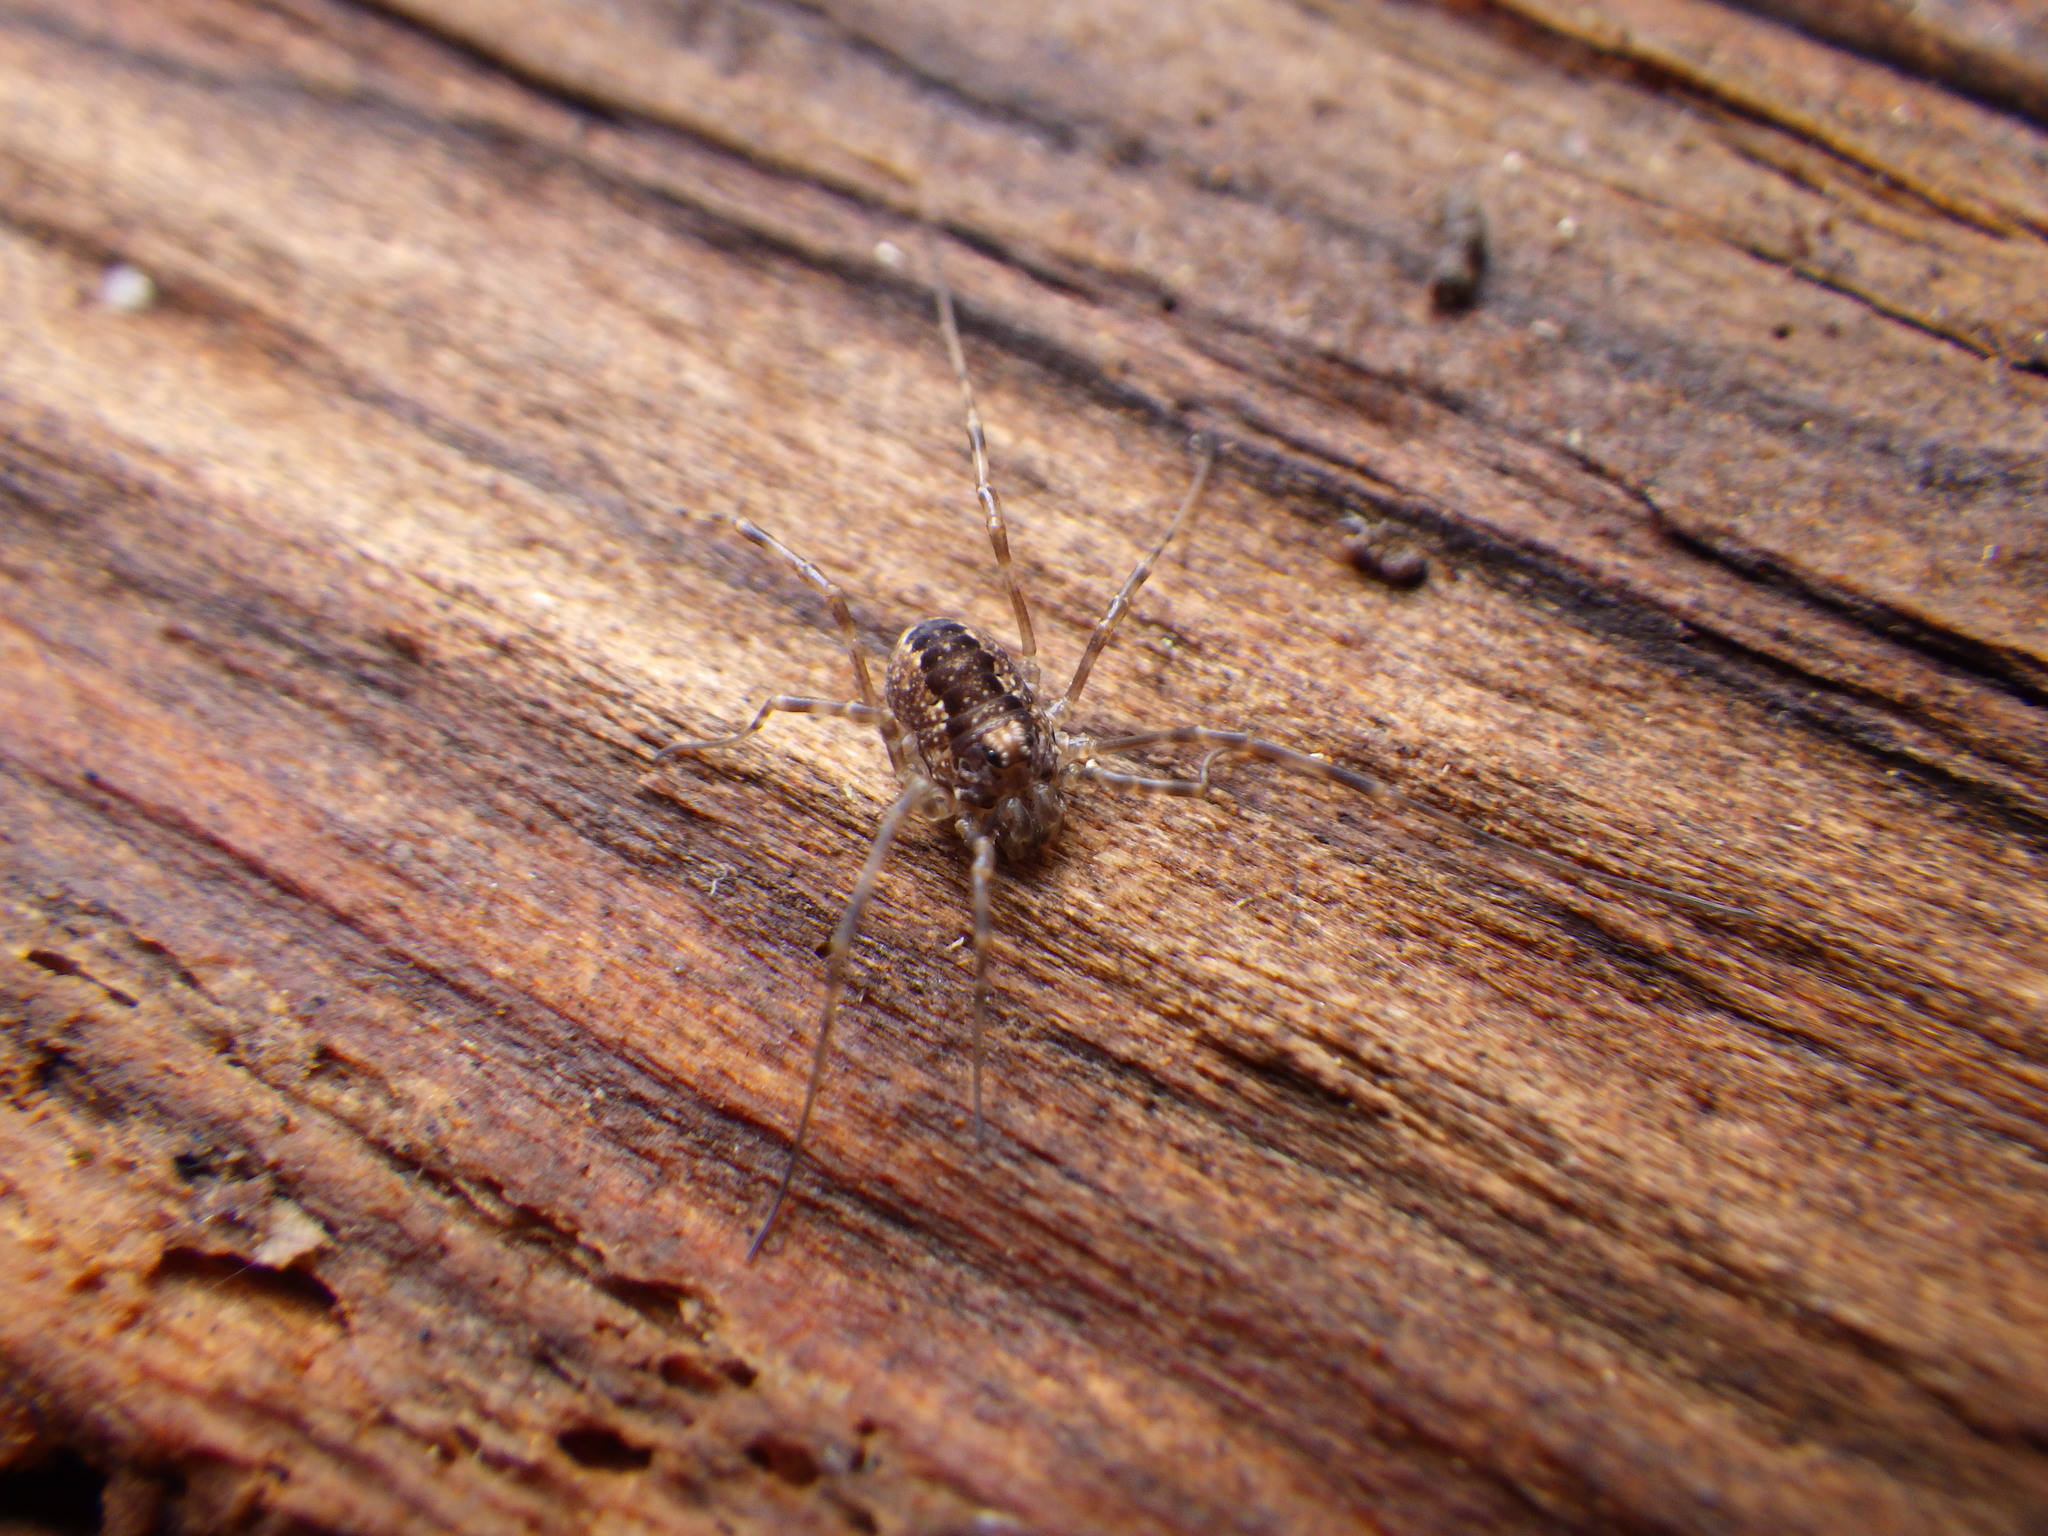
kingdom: Animalia
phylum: Arthropoda
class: Arachnida
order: Opiliones
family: Phalangiidae
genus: Rilaena
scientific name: Rilaena triangularis
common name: Spring harvestman
